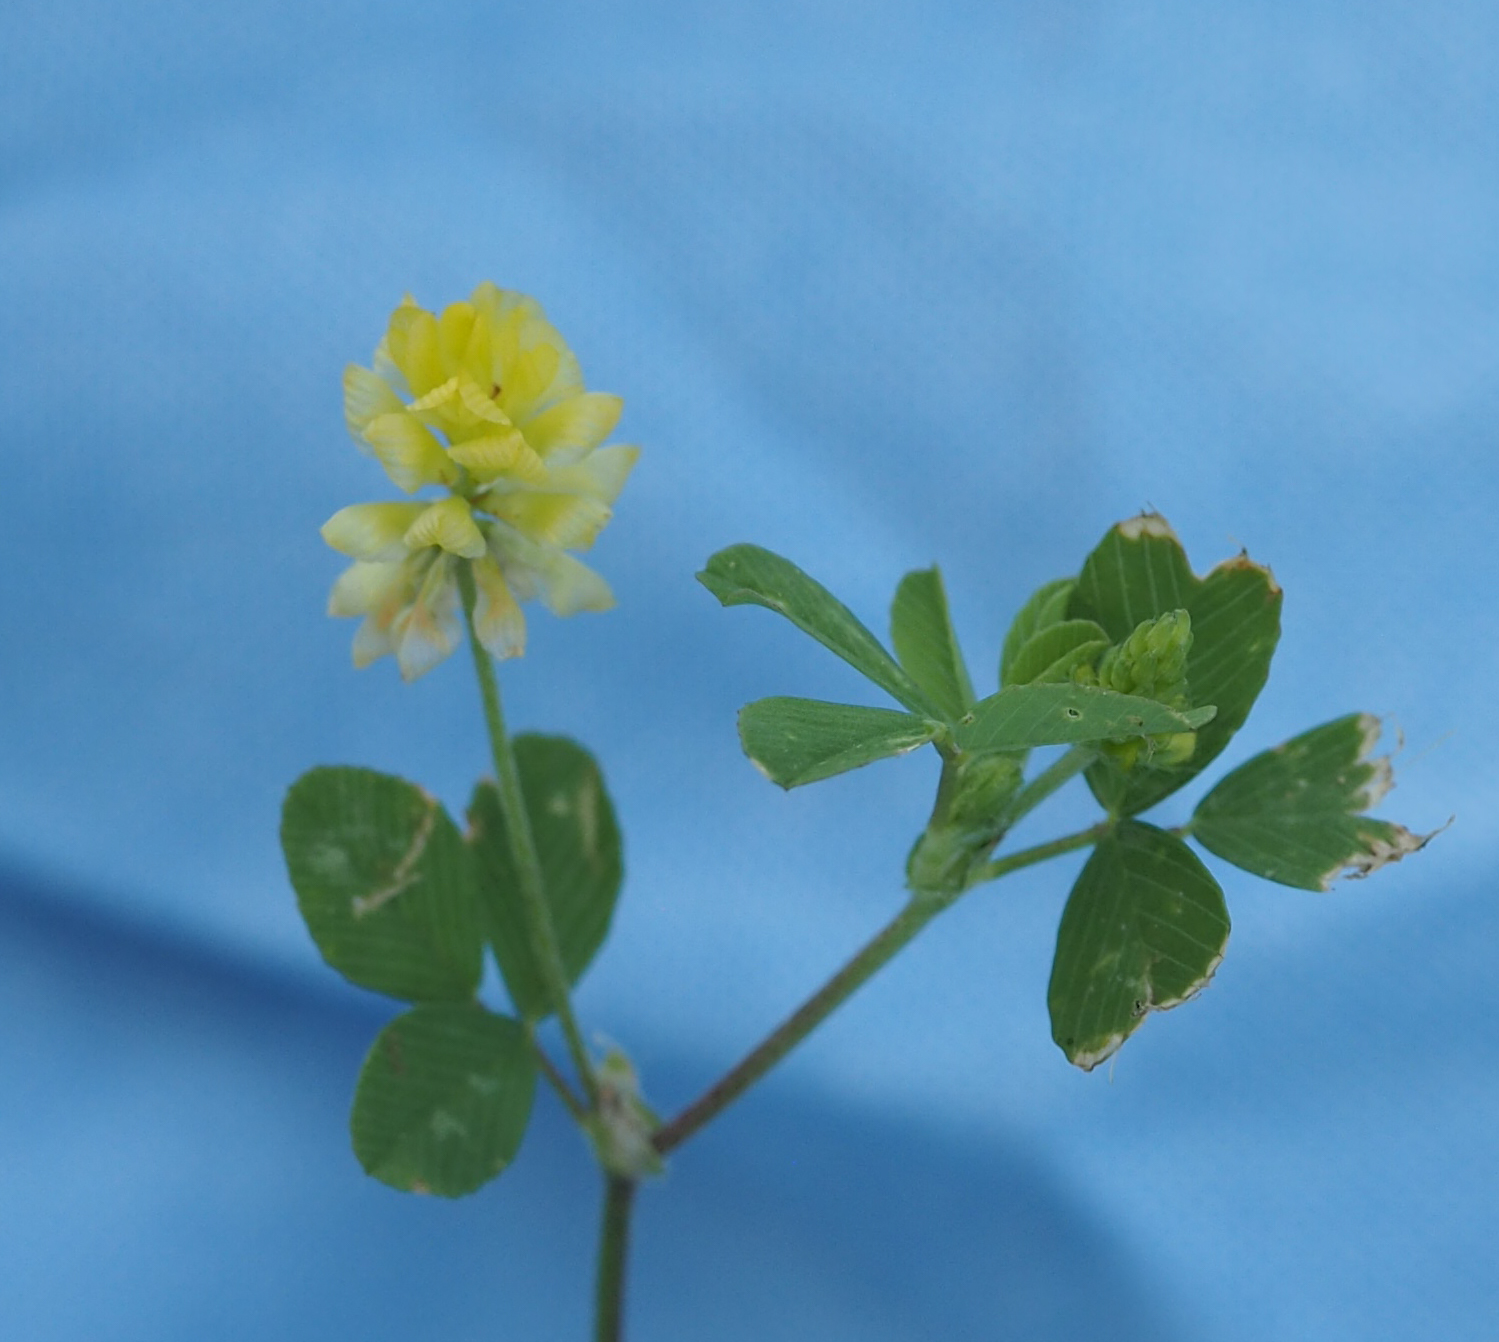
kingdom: Plantae
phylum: Tracheophyta
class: Magnoliopsida
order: Fabales
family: Fabaceae
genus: Trifolium
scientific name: Trifolium campestre
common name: Field clover
